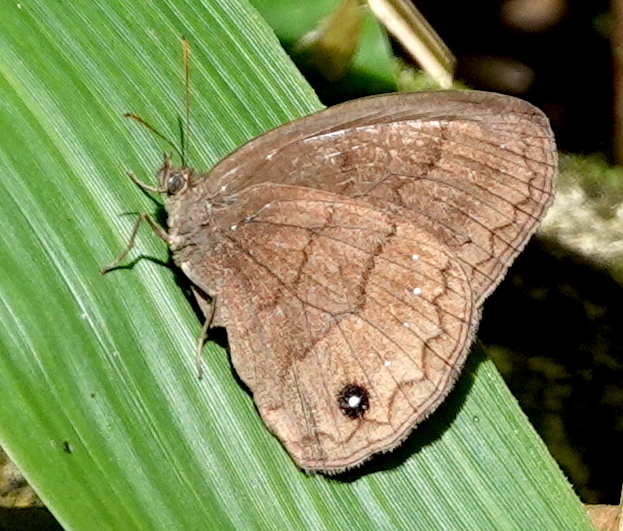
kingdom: Animalia
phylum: Arthropoda
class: Insecta
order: Lepidoptera
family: Nymphalidae
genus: Forsterinaria
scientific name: Forsterinaria neonympha
